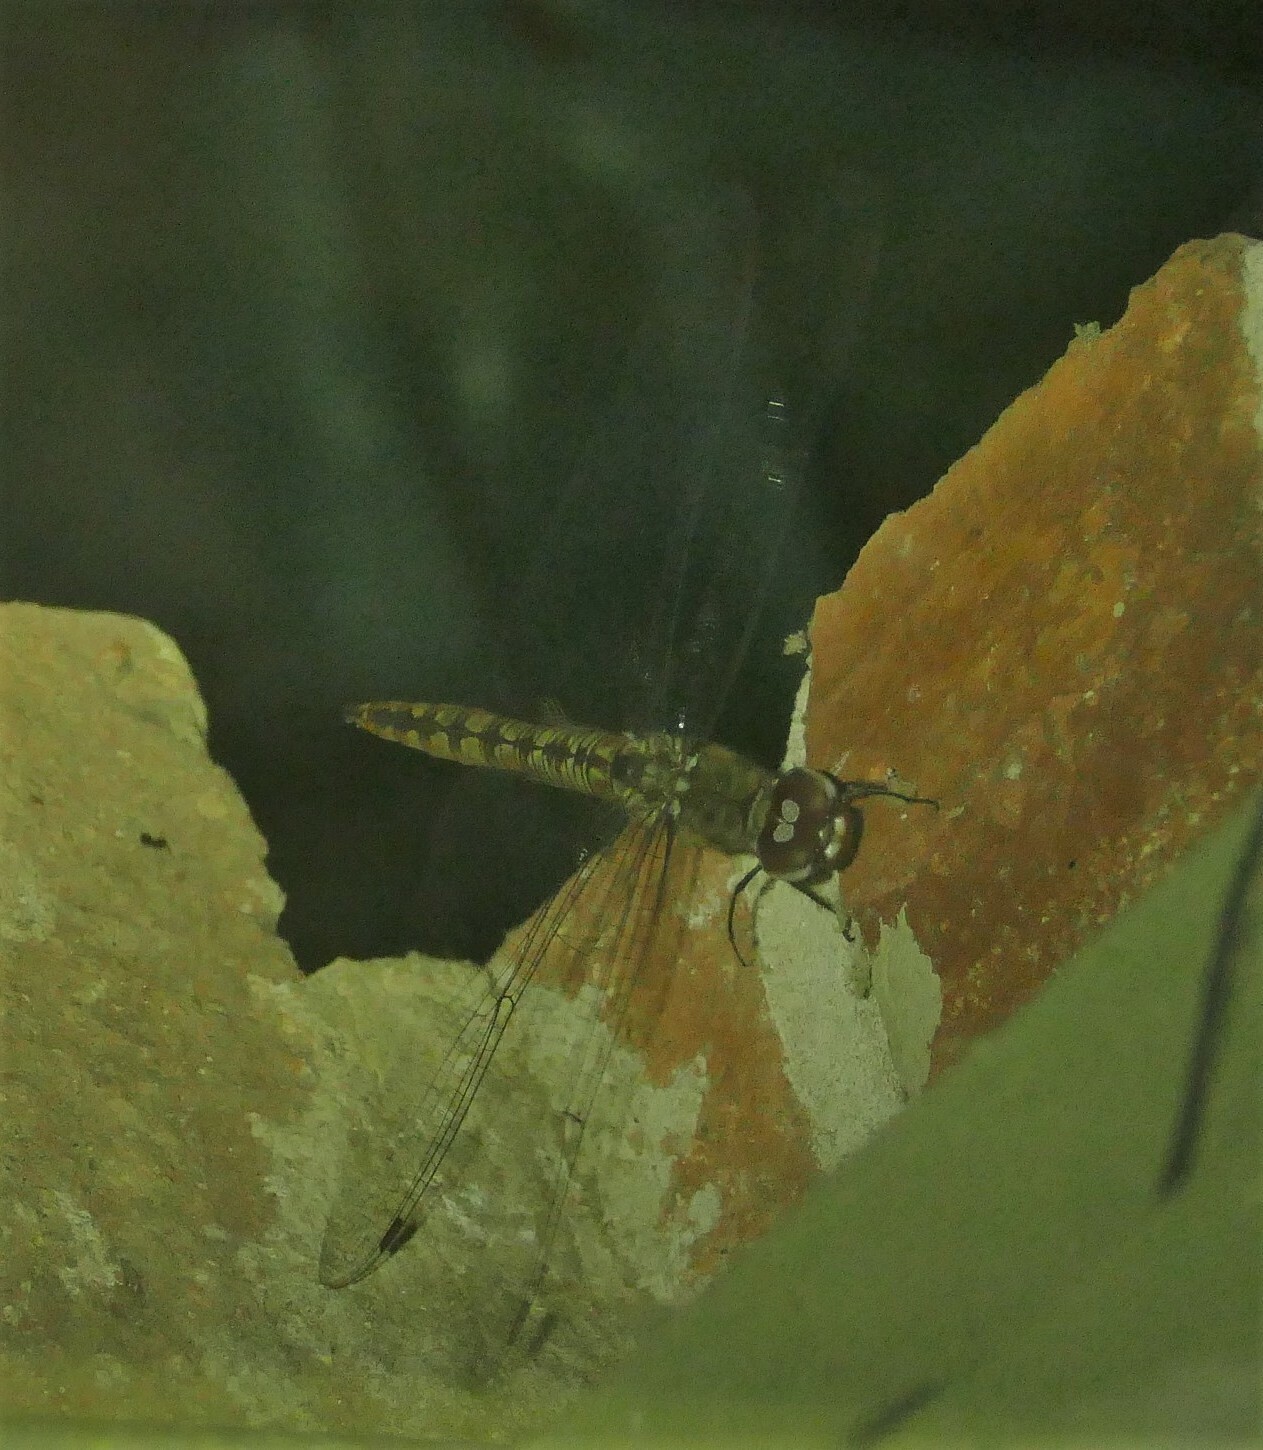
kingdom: Animalia
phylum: Arthropoda
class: Insecta
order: Odonata
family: Libellulidae
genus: Pantala
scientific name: Pantala hymenaea
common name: Spot-winged glider
